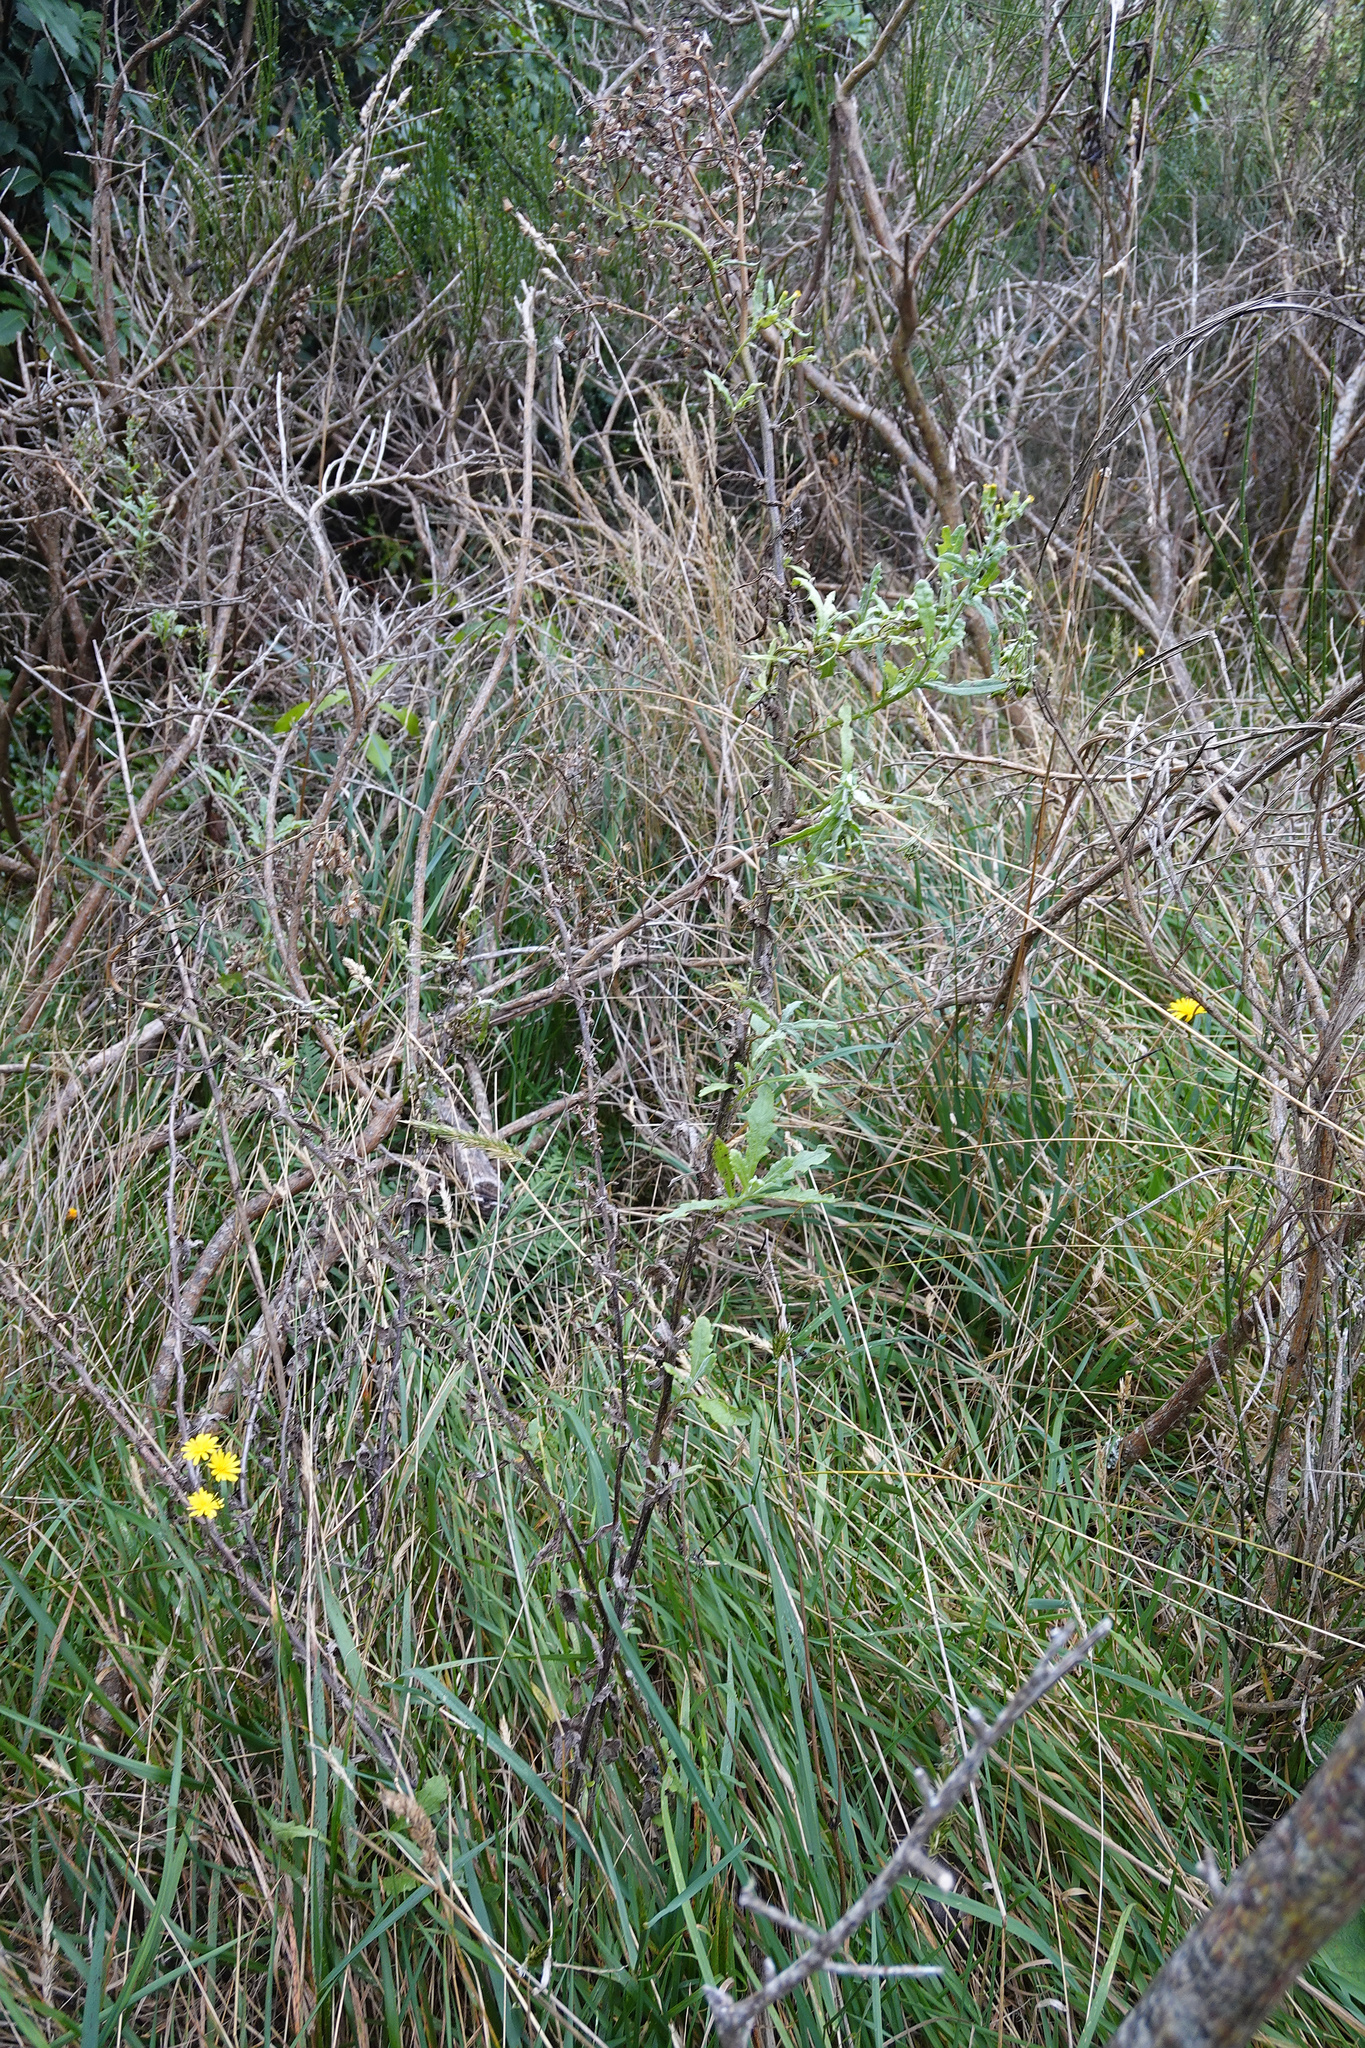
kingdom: Plantae
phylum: Tracheophyta
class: Magnoliopsida
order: Asterales
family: Asteraceae
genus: Senecio
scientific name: Senecio glomeratus
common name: Cutleaf burnweed
